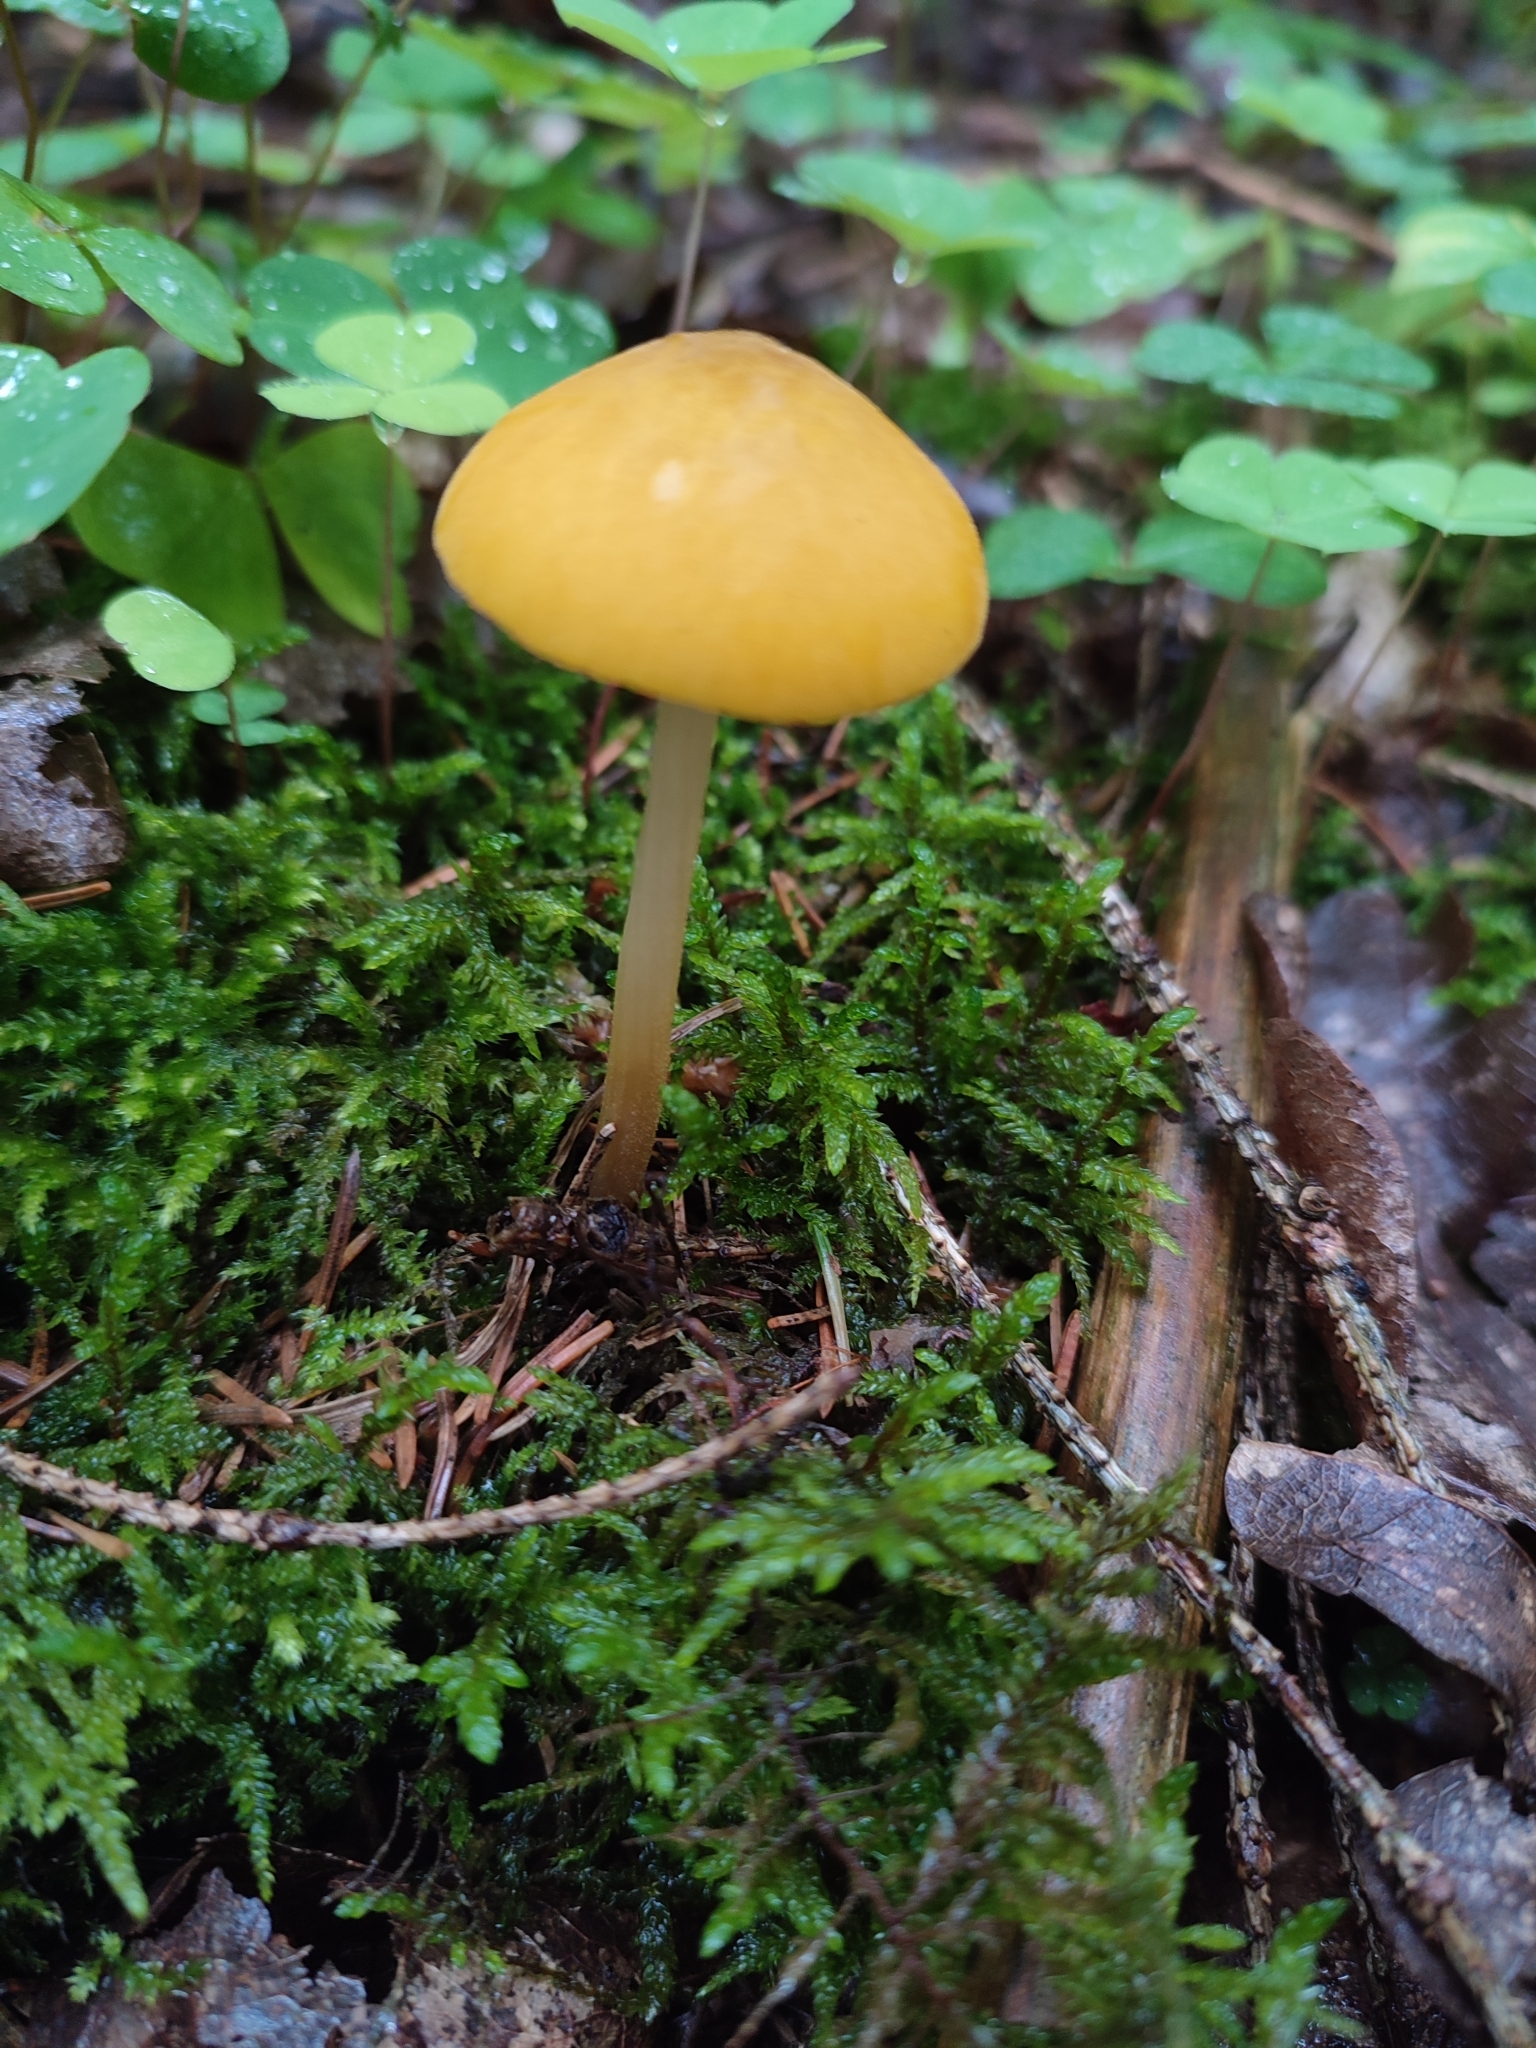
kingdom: Fungi
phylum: Basidiomycota
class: Agaricomycetes
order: Agaricales
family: Pluteaceae
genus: Pluteus
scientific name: Pluteus leoninus
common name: Lion shield
